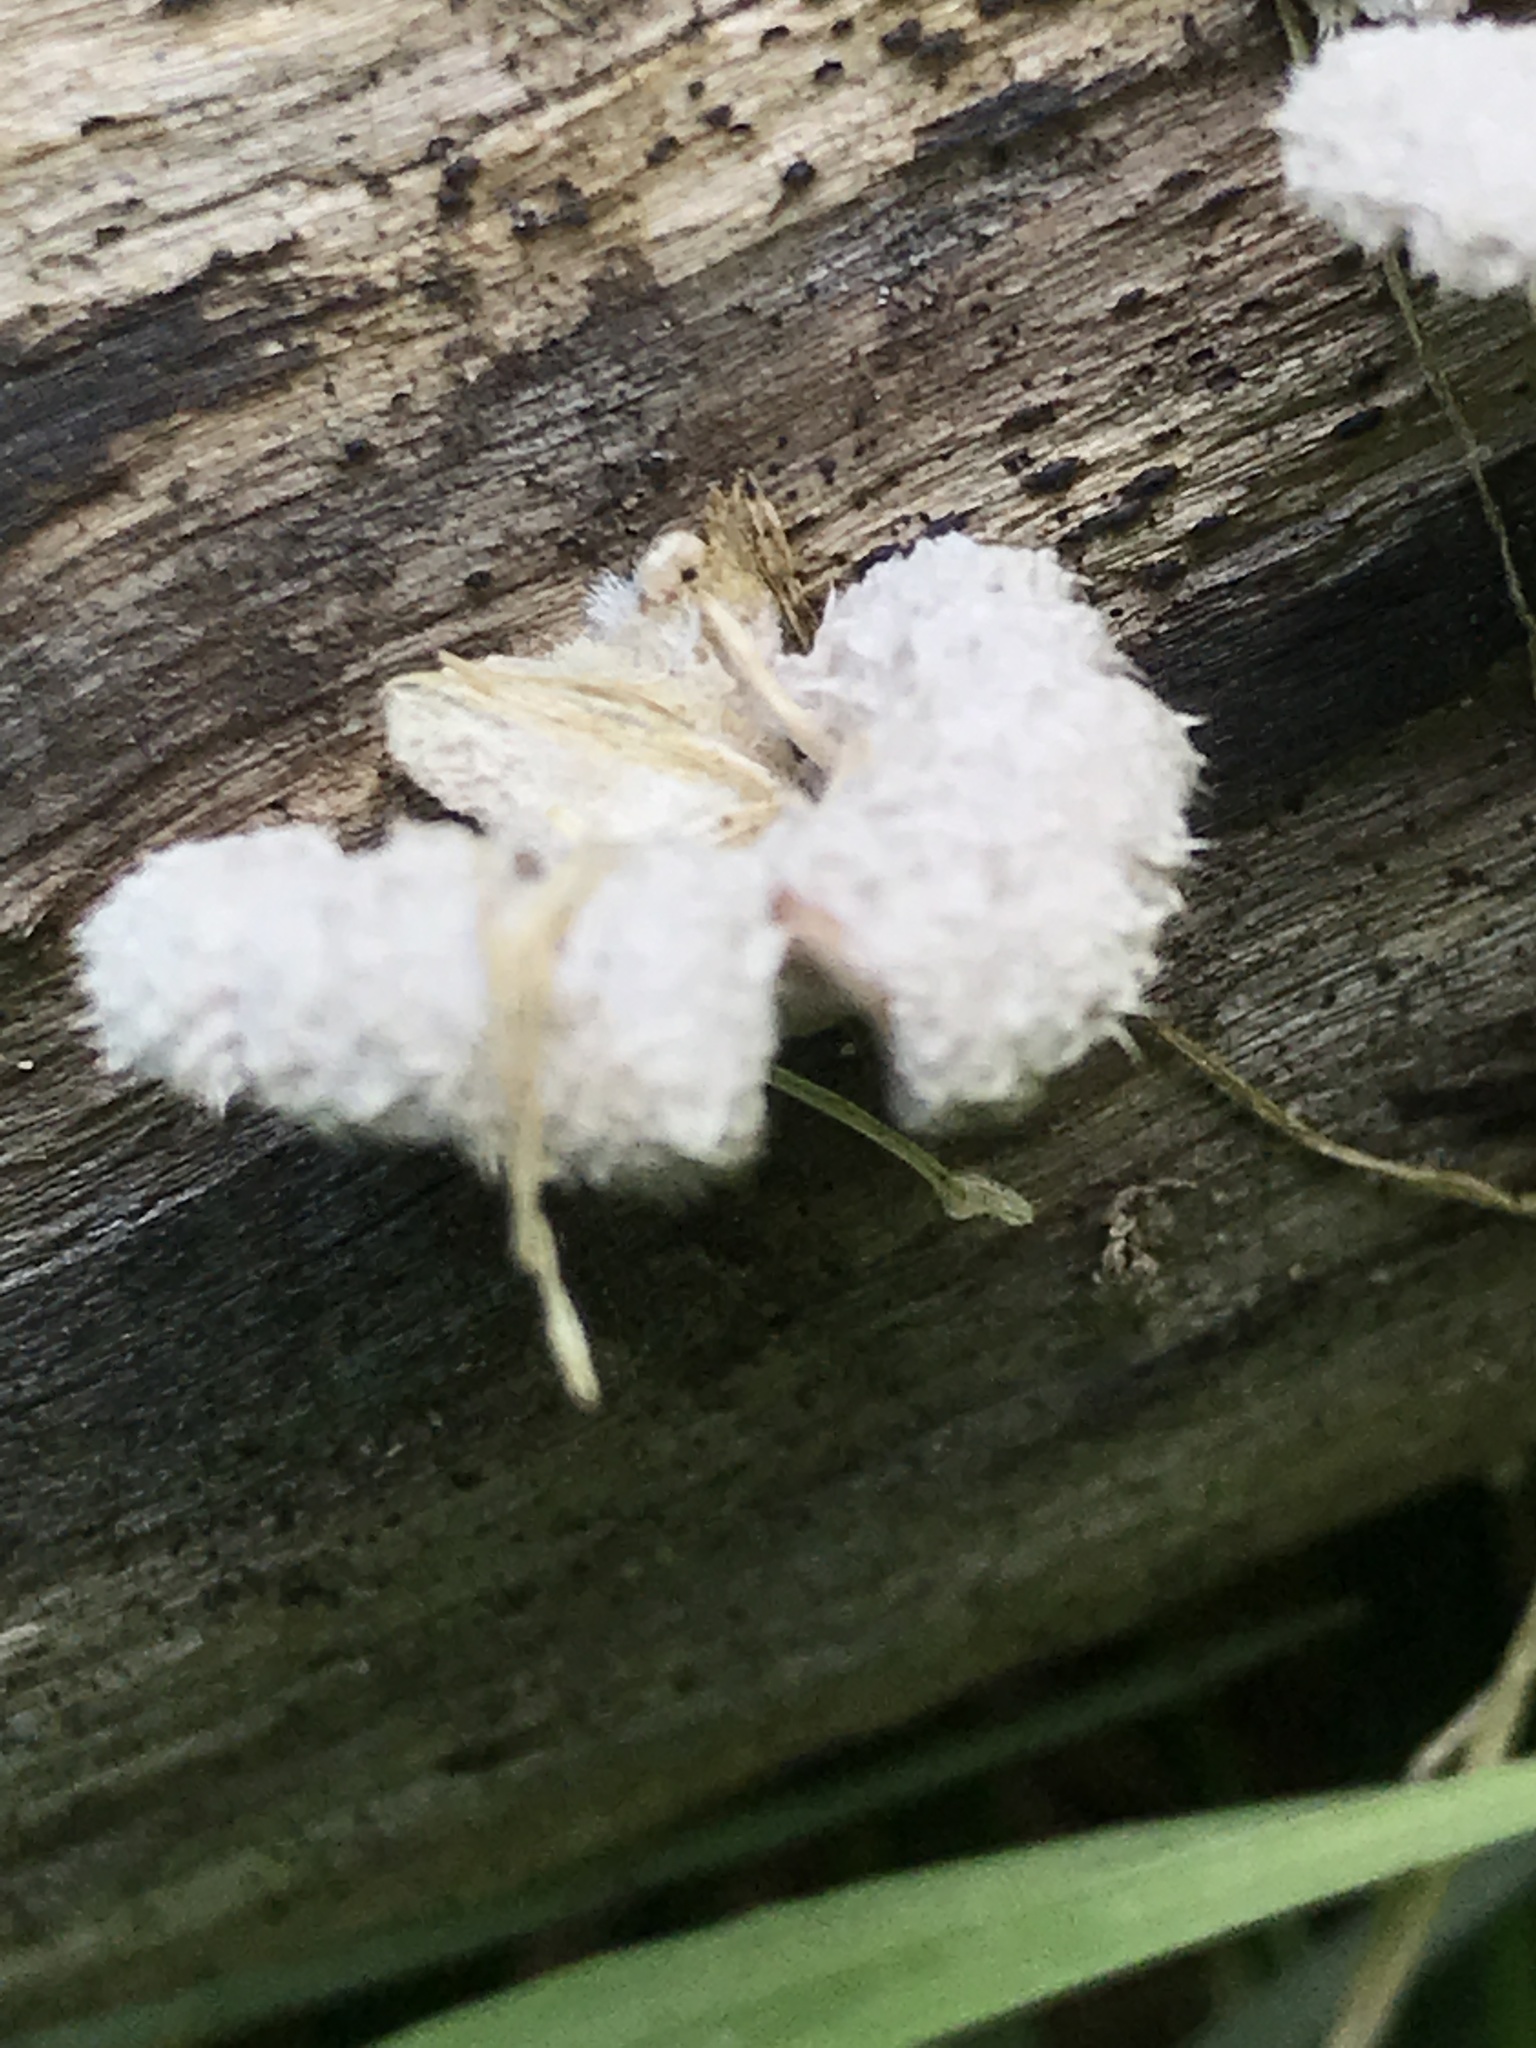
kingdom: Fungi
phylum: Basidiomycota
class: Agaricomycetes
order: Agaricales
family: Schizophyllaceae
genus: Schizophyllum
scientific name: Schizophyllum commune
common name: Common porecrust
